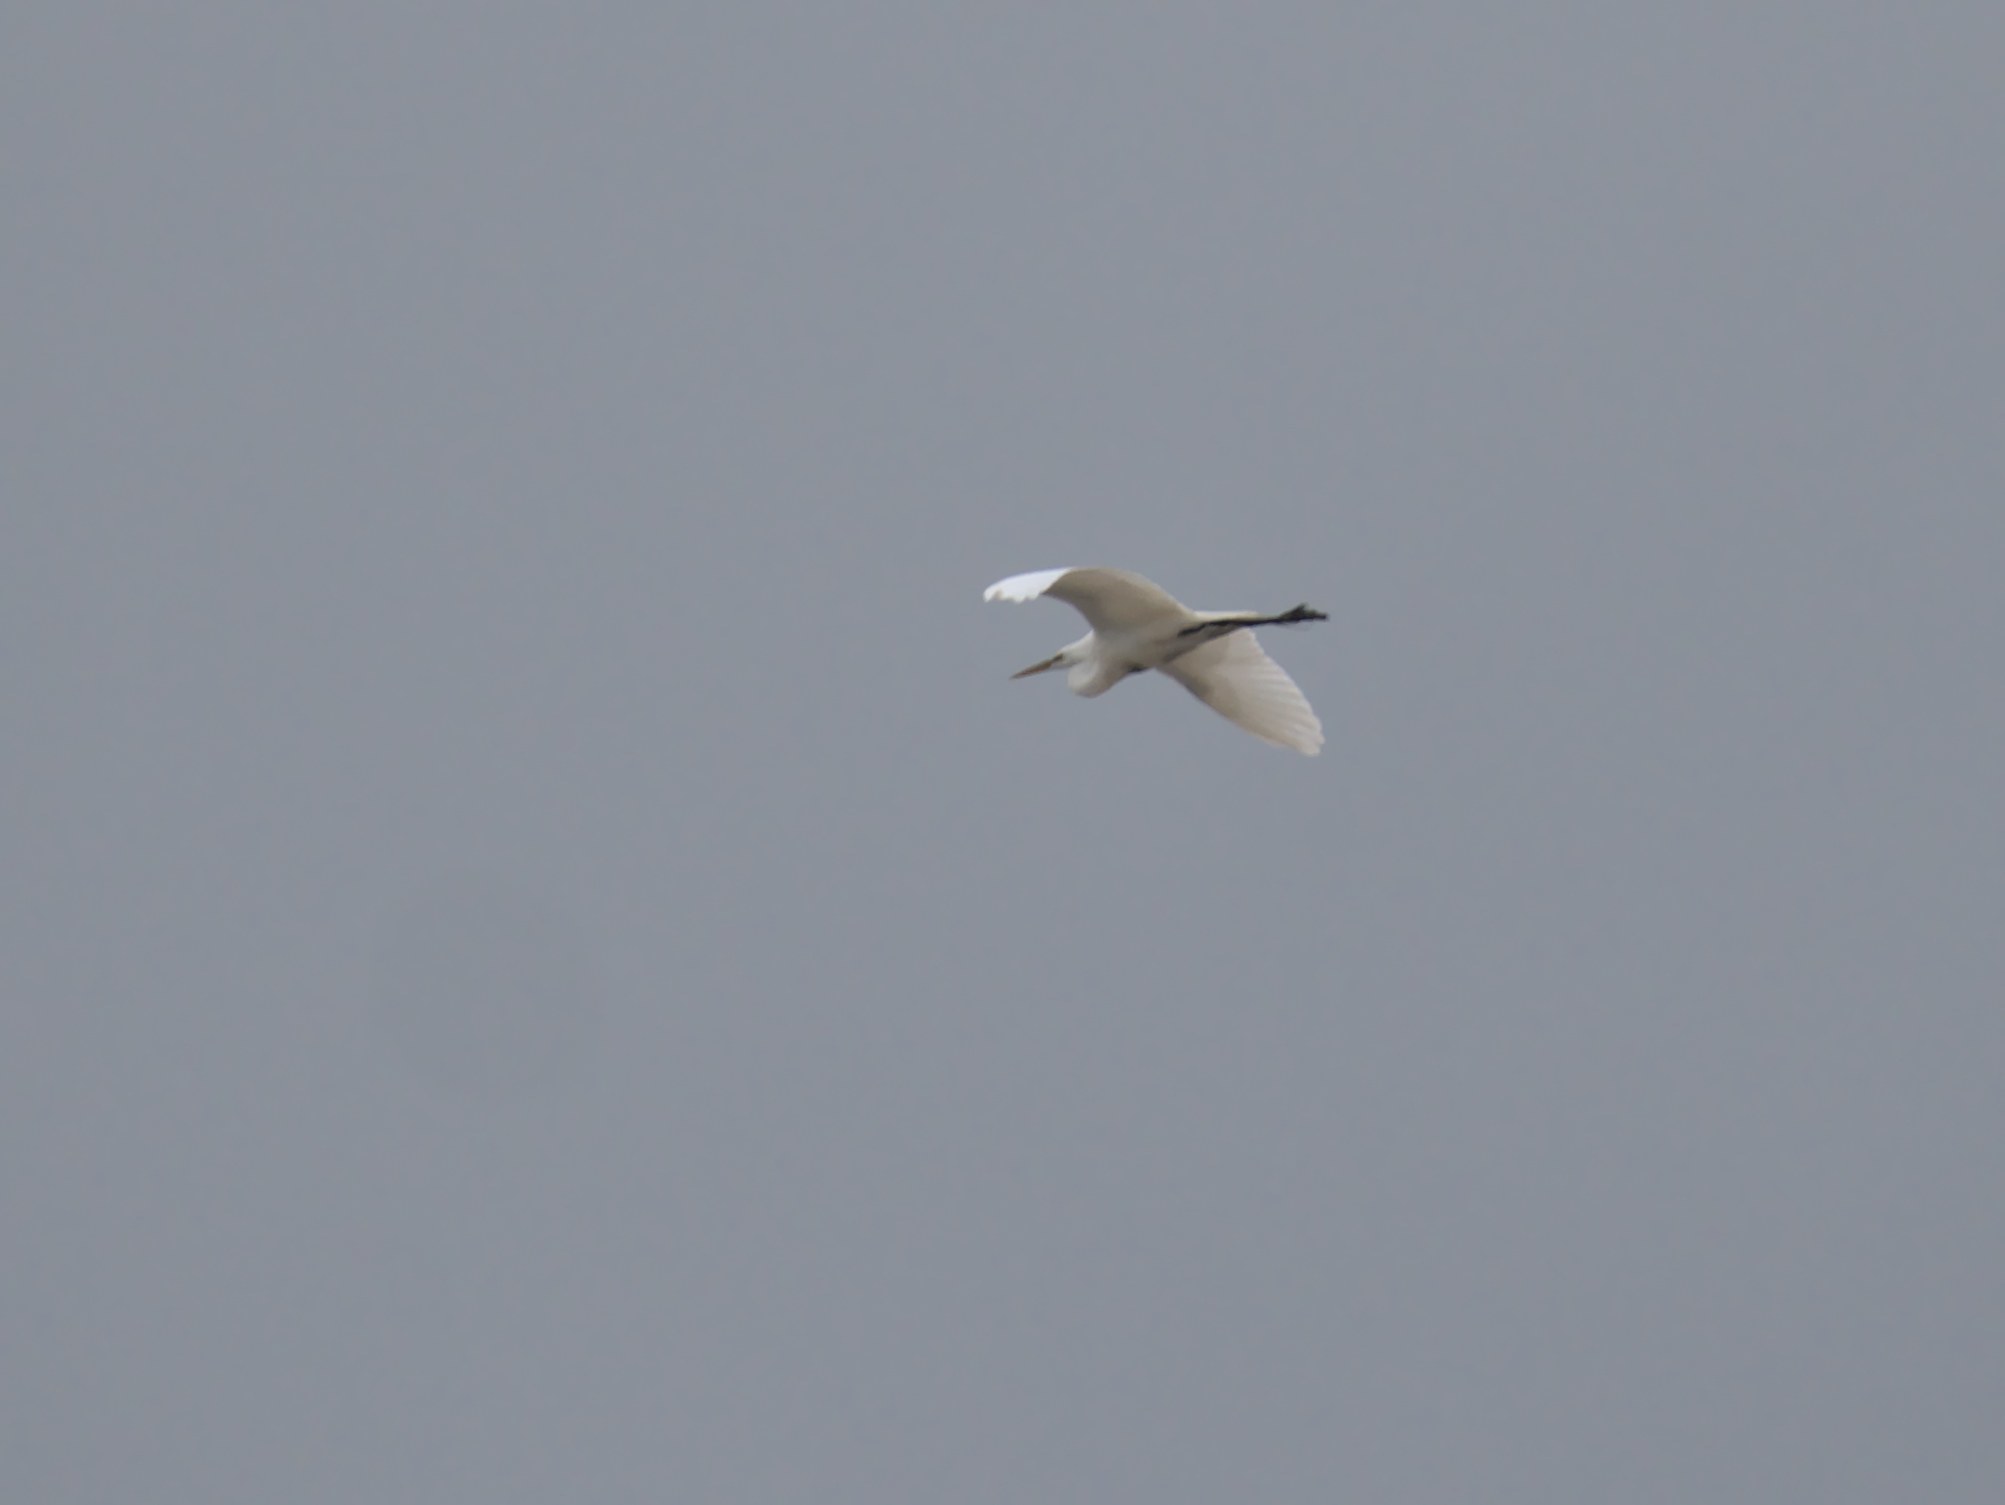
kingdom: Animalia
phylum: Chordata
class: Aves
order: Pelecaniformes
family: Ardeidae
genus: Ardea
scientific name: Ardea alba
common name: Great egret
